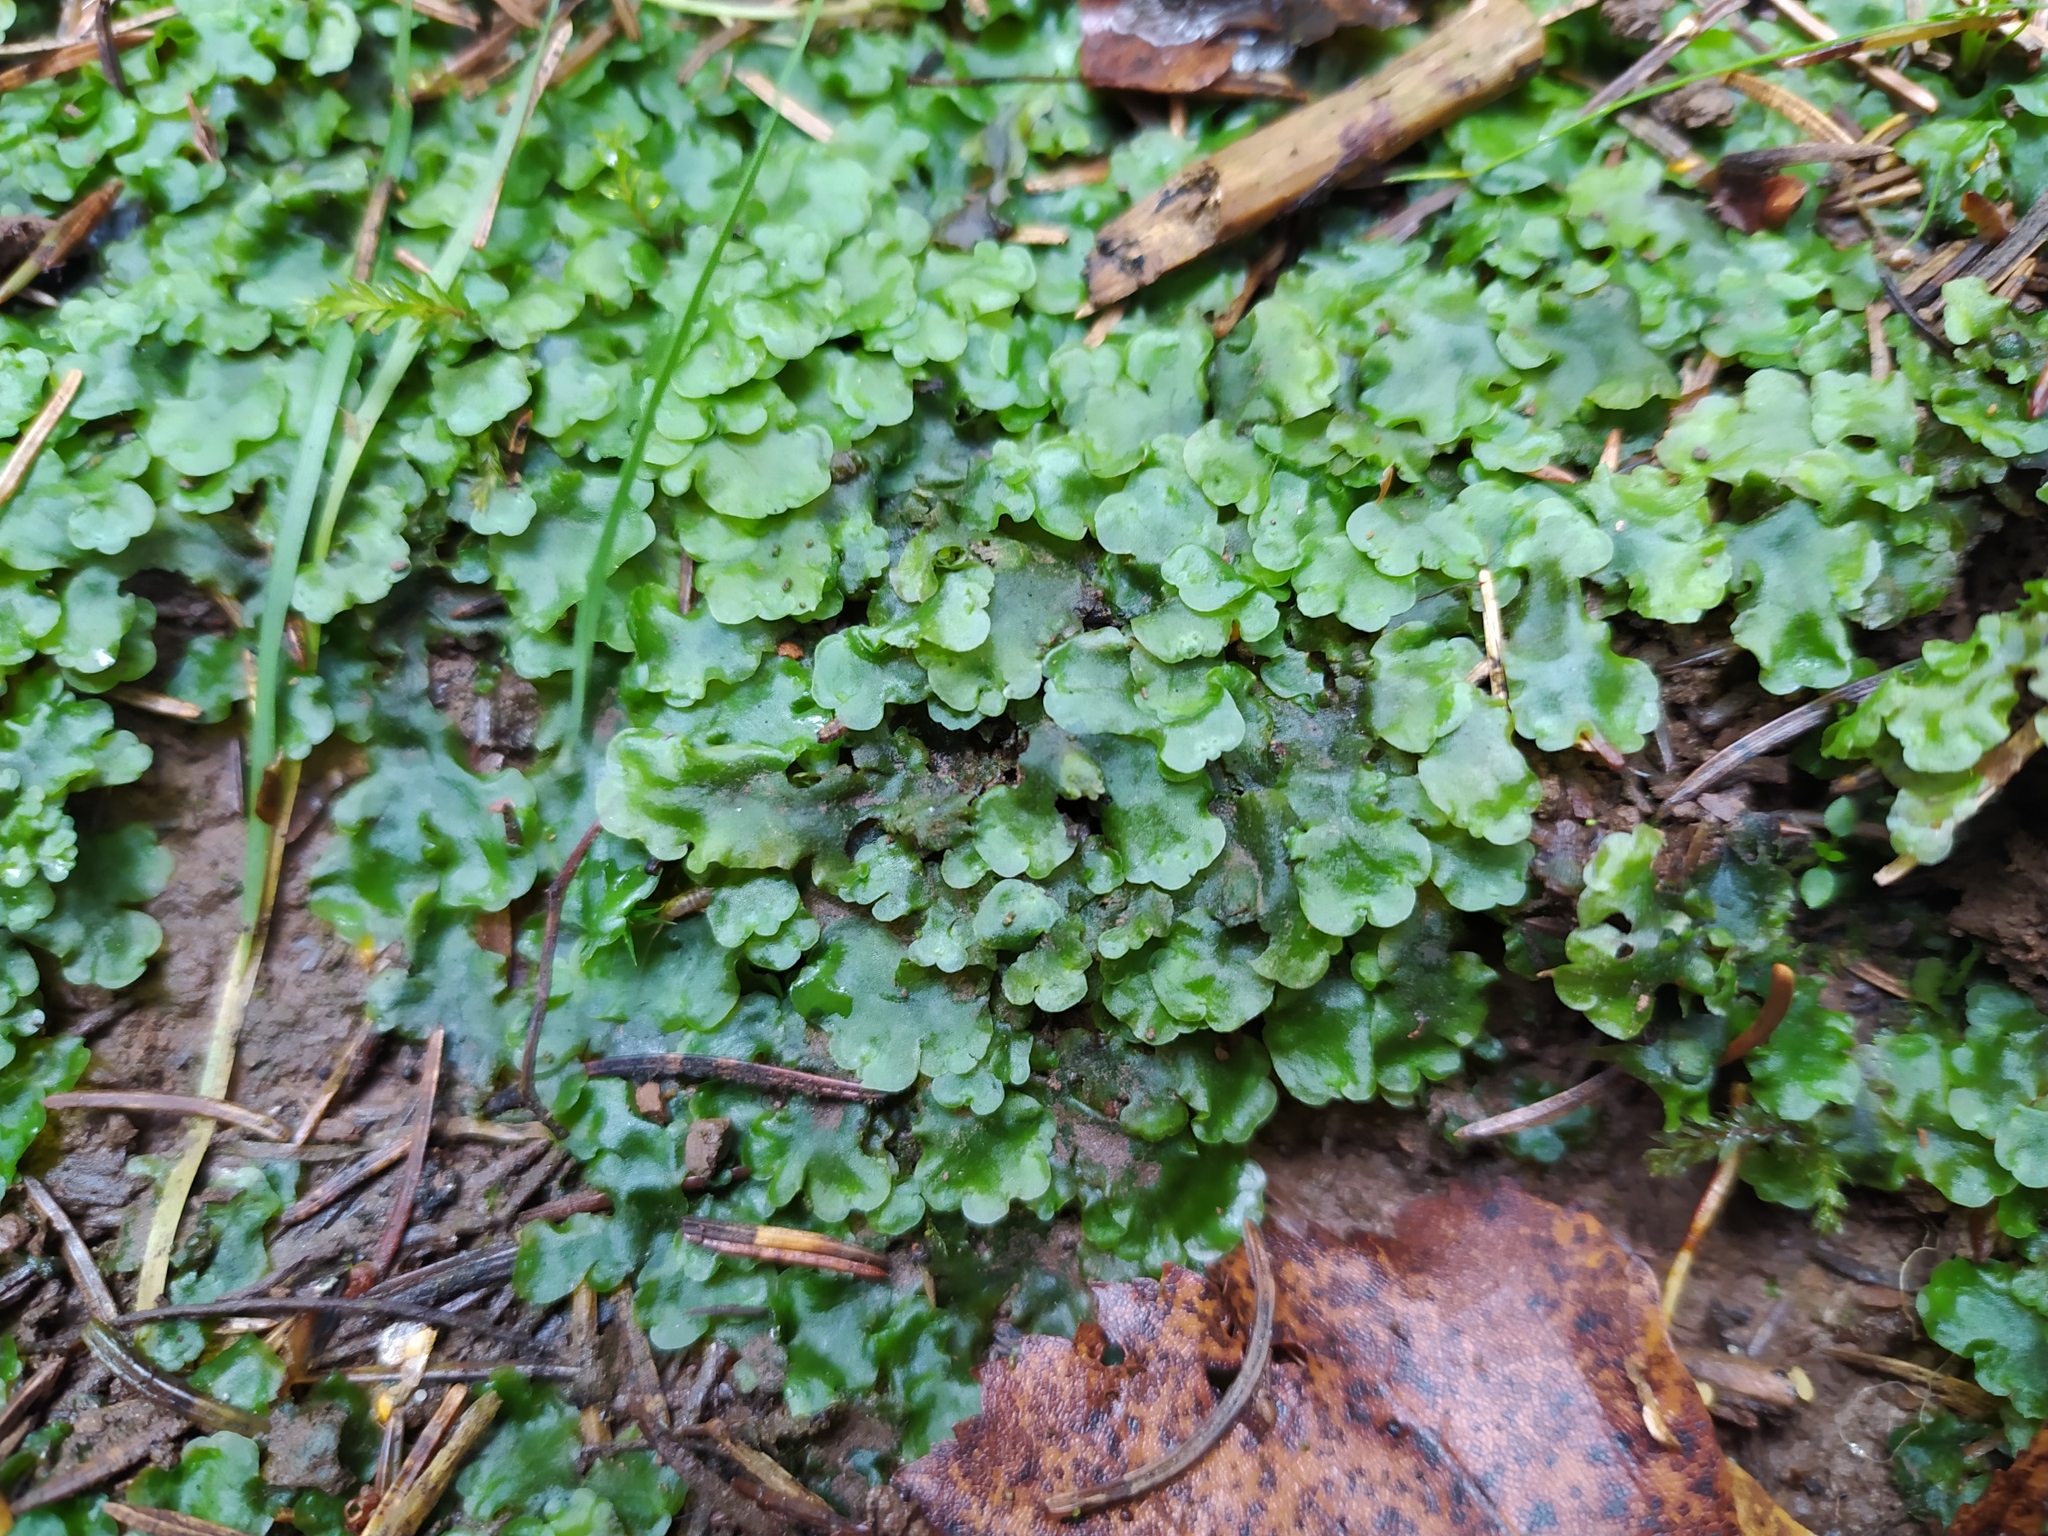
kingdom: Plantae
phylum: Marchantiophyta
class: Jungermanniopsida
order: Pelliales
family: Pelliaceae
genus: Pellia
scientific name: Pellia epiphylla
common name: Common pellia
